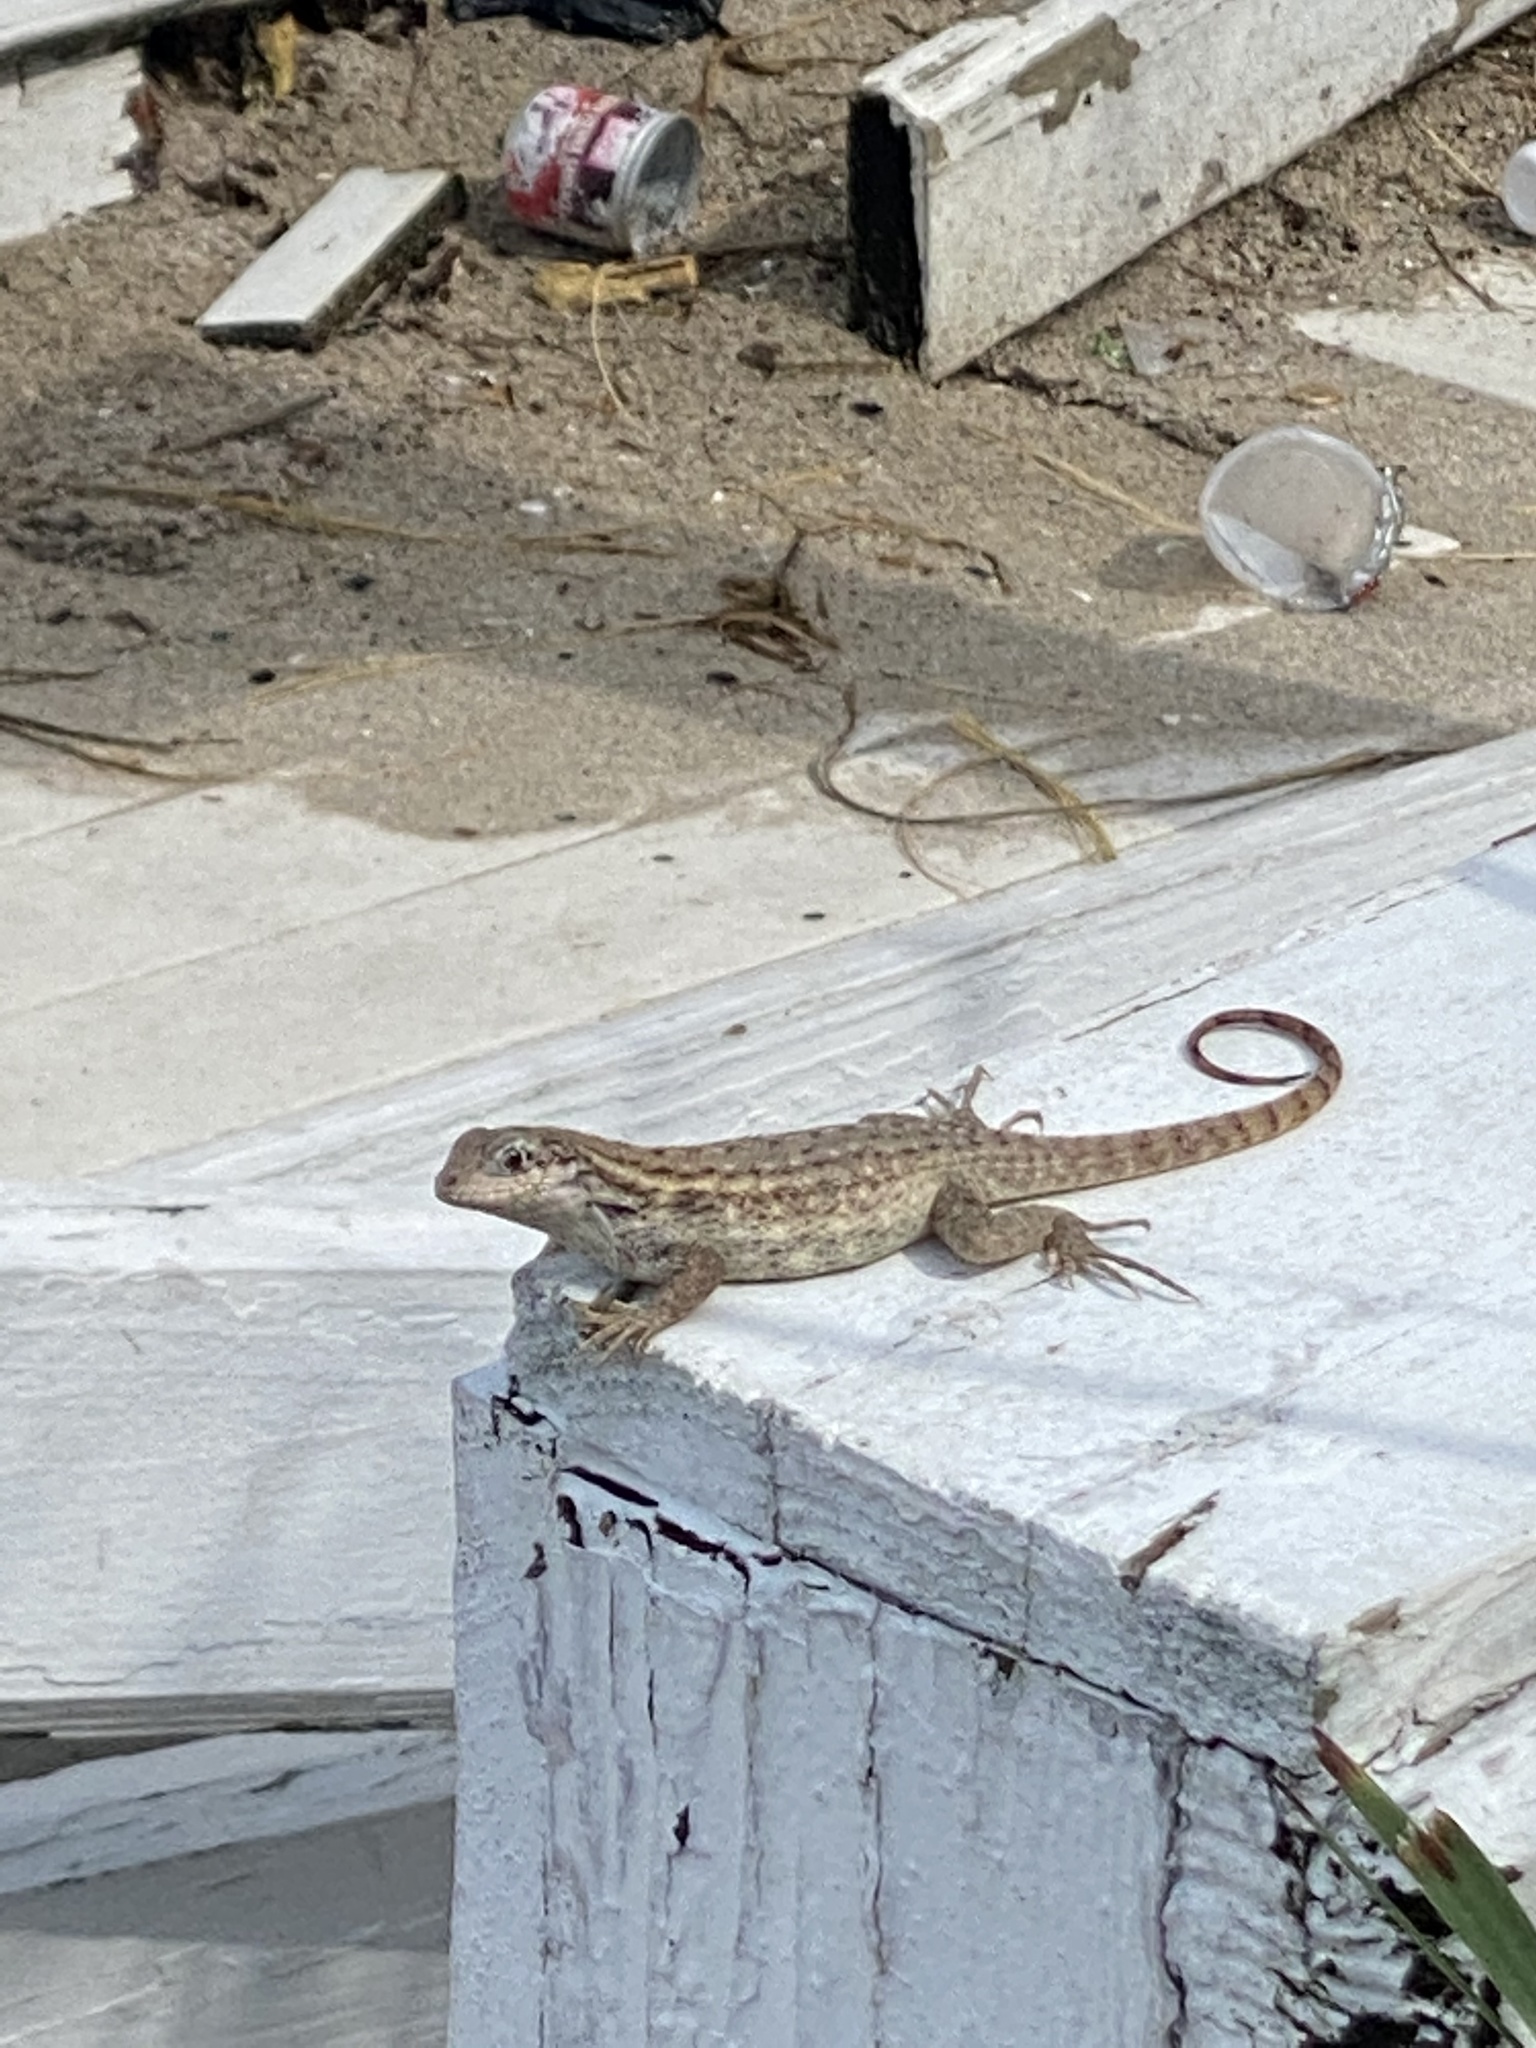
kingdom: Animalia
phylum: Chordata
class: Squamata
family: Leiocephalidae
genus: Leiocephalus
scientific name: Leiocephalus carinatus
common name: Northern curly-tailed lizard
